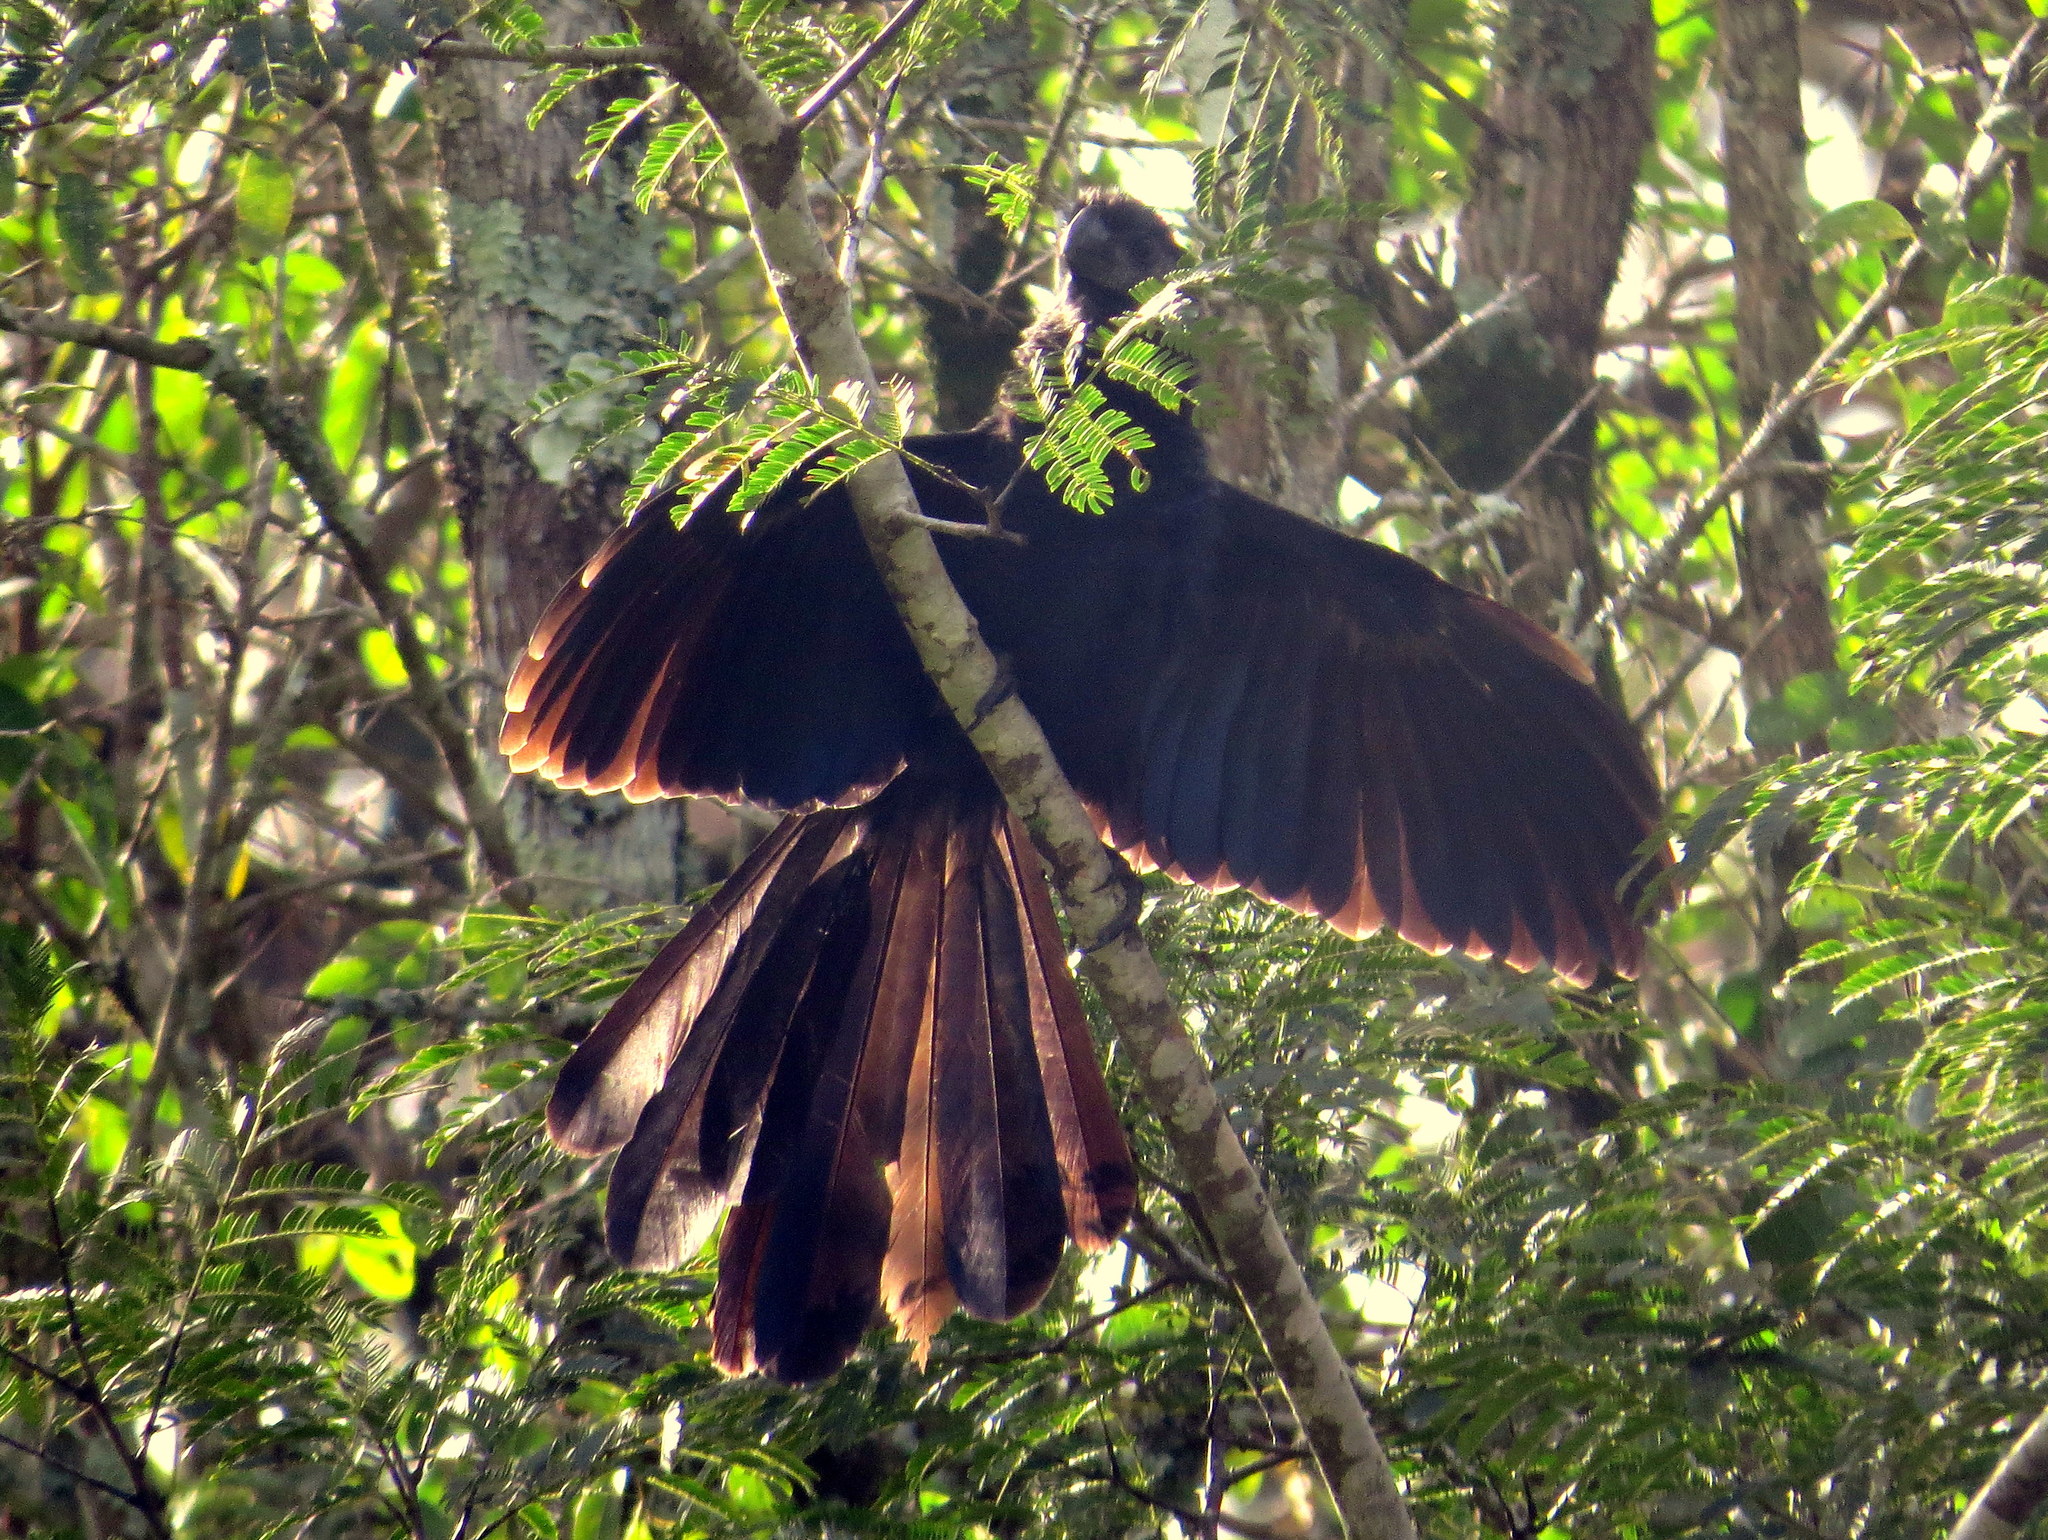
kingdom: Animalia
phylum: Chordata
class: Aves
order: Cuculiformes
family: Cuculidae
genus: Crotophaga
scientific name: Crotophaga ani
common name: Smooth-billed ani
